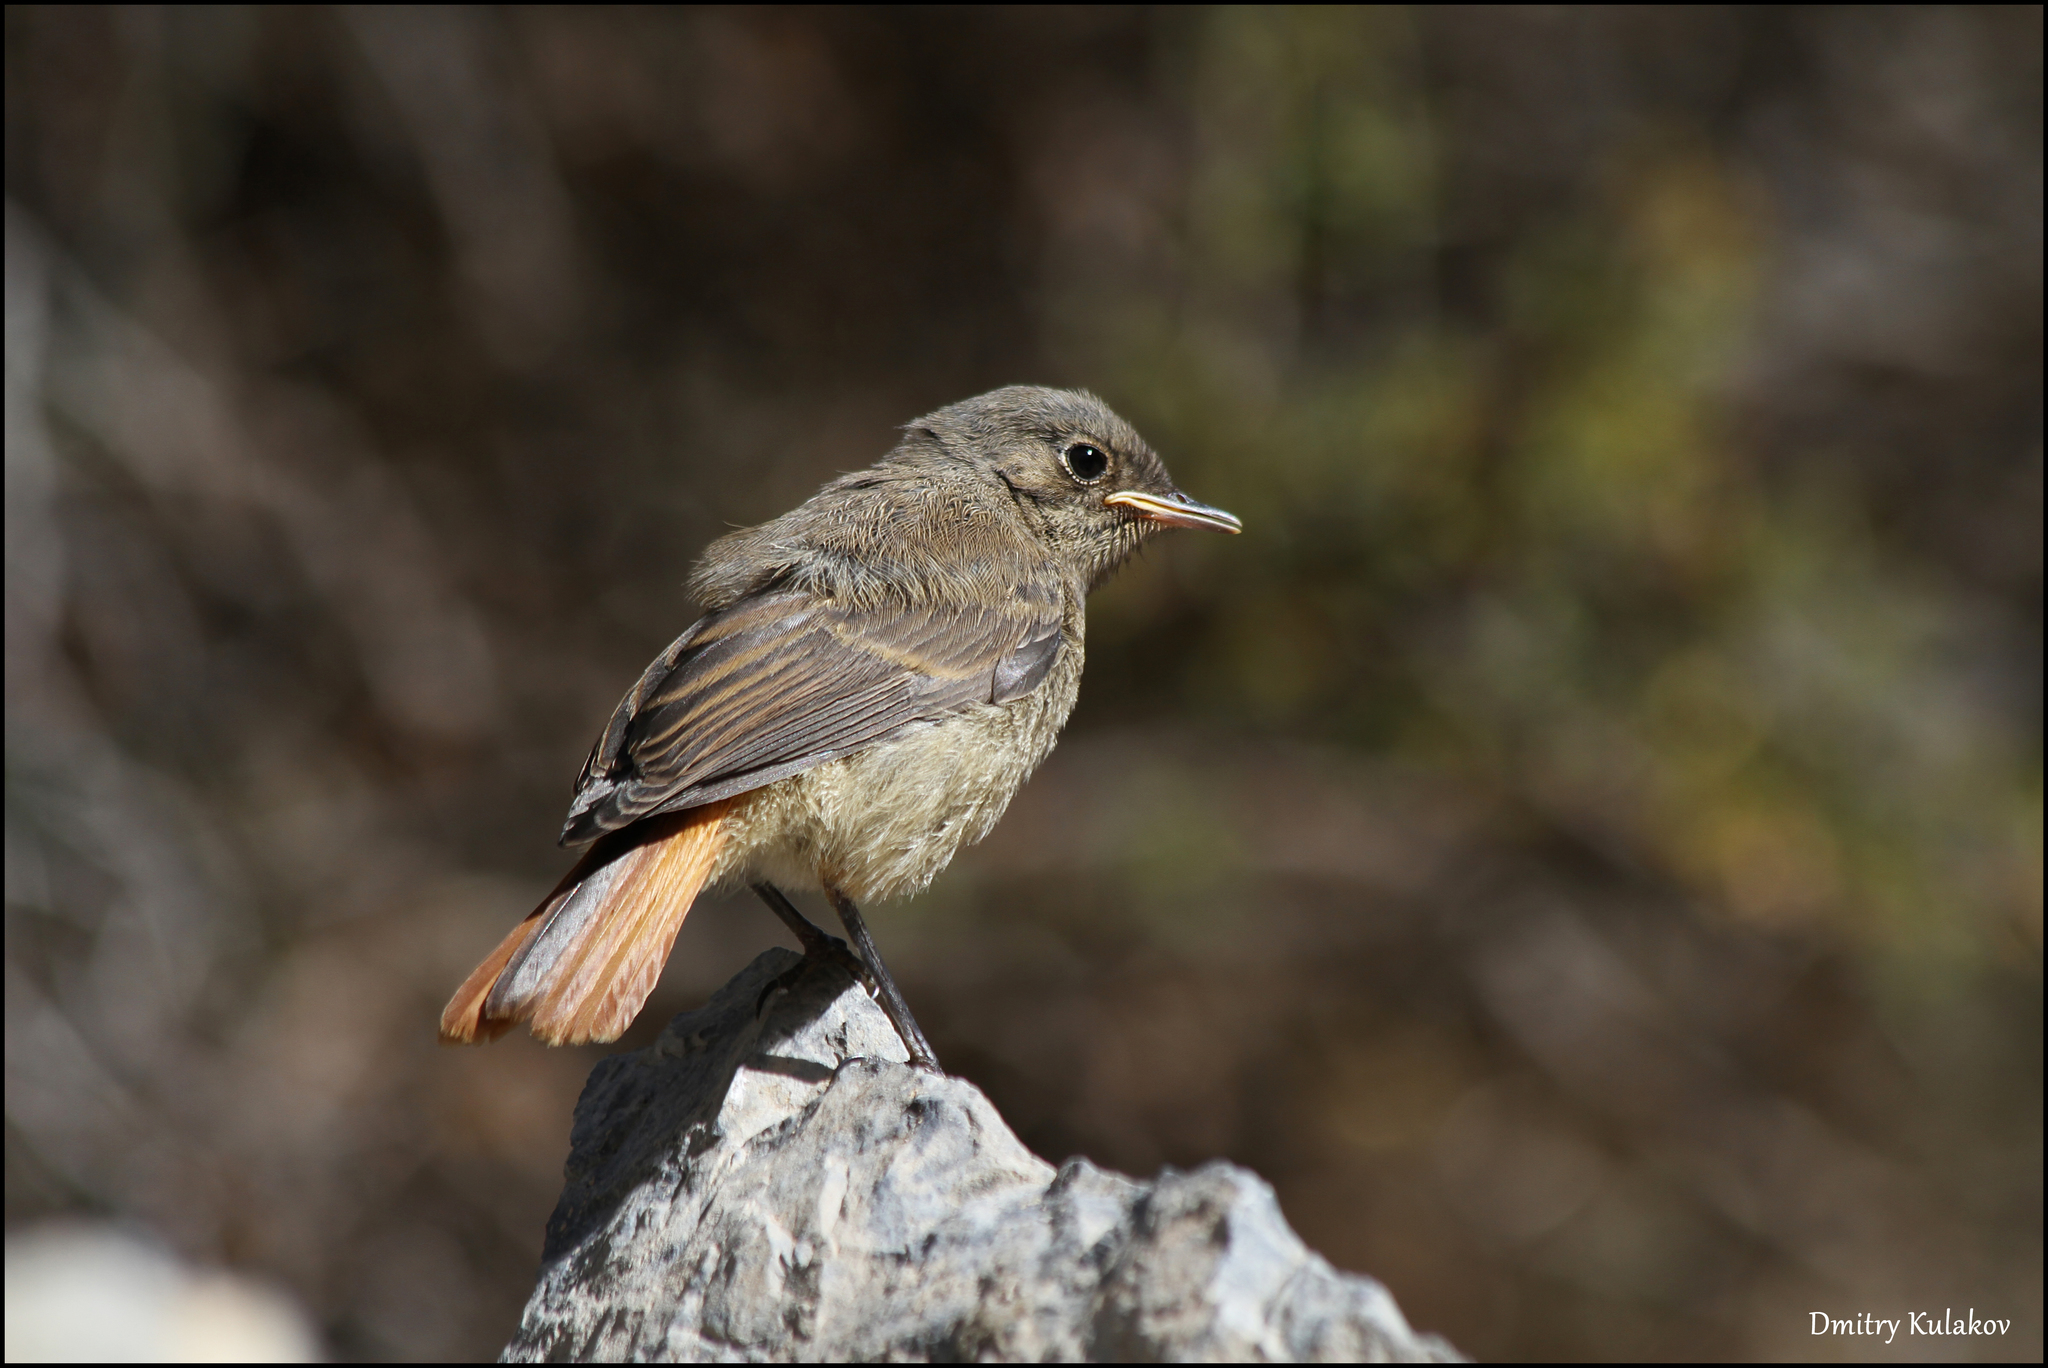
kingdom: Animalia
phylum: Chordata
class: Aves
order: Passeriformes
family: Muscicapidae
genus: Phoenicurus
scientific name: Phoenicurus ochruros
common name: Black redstart
